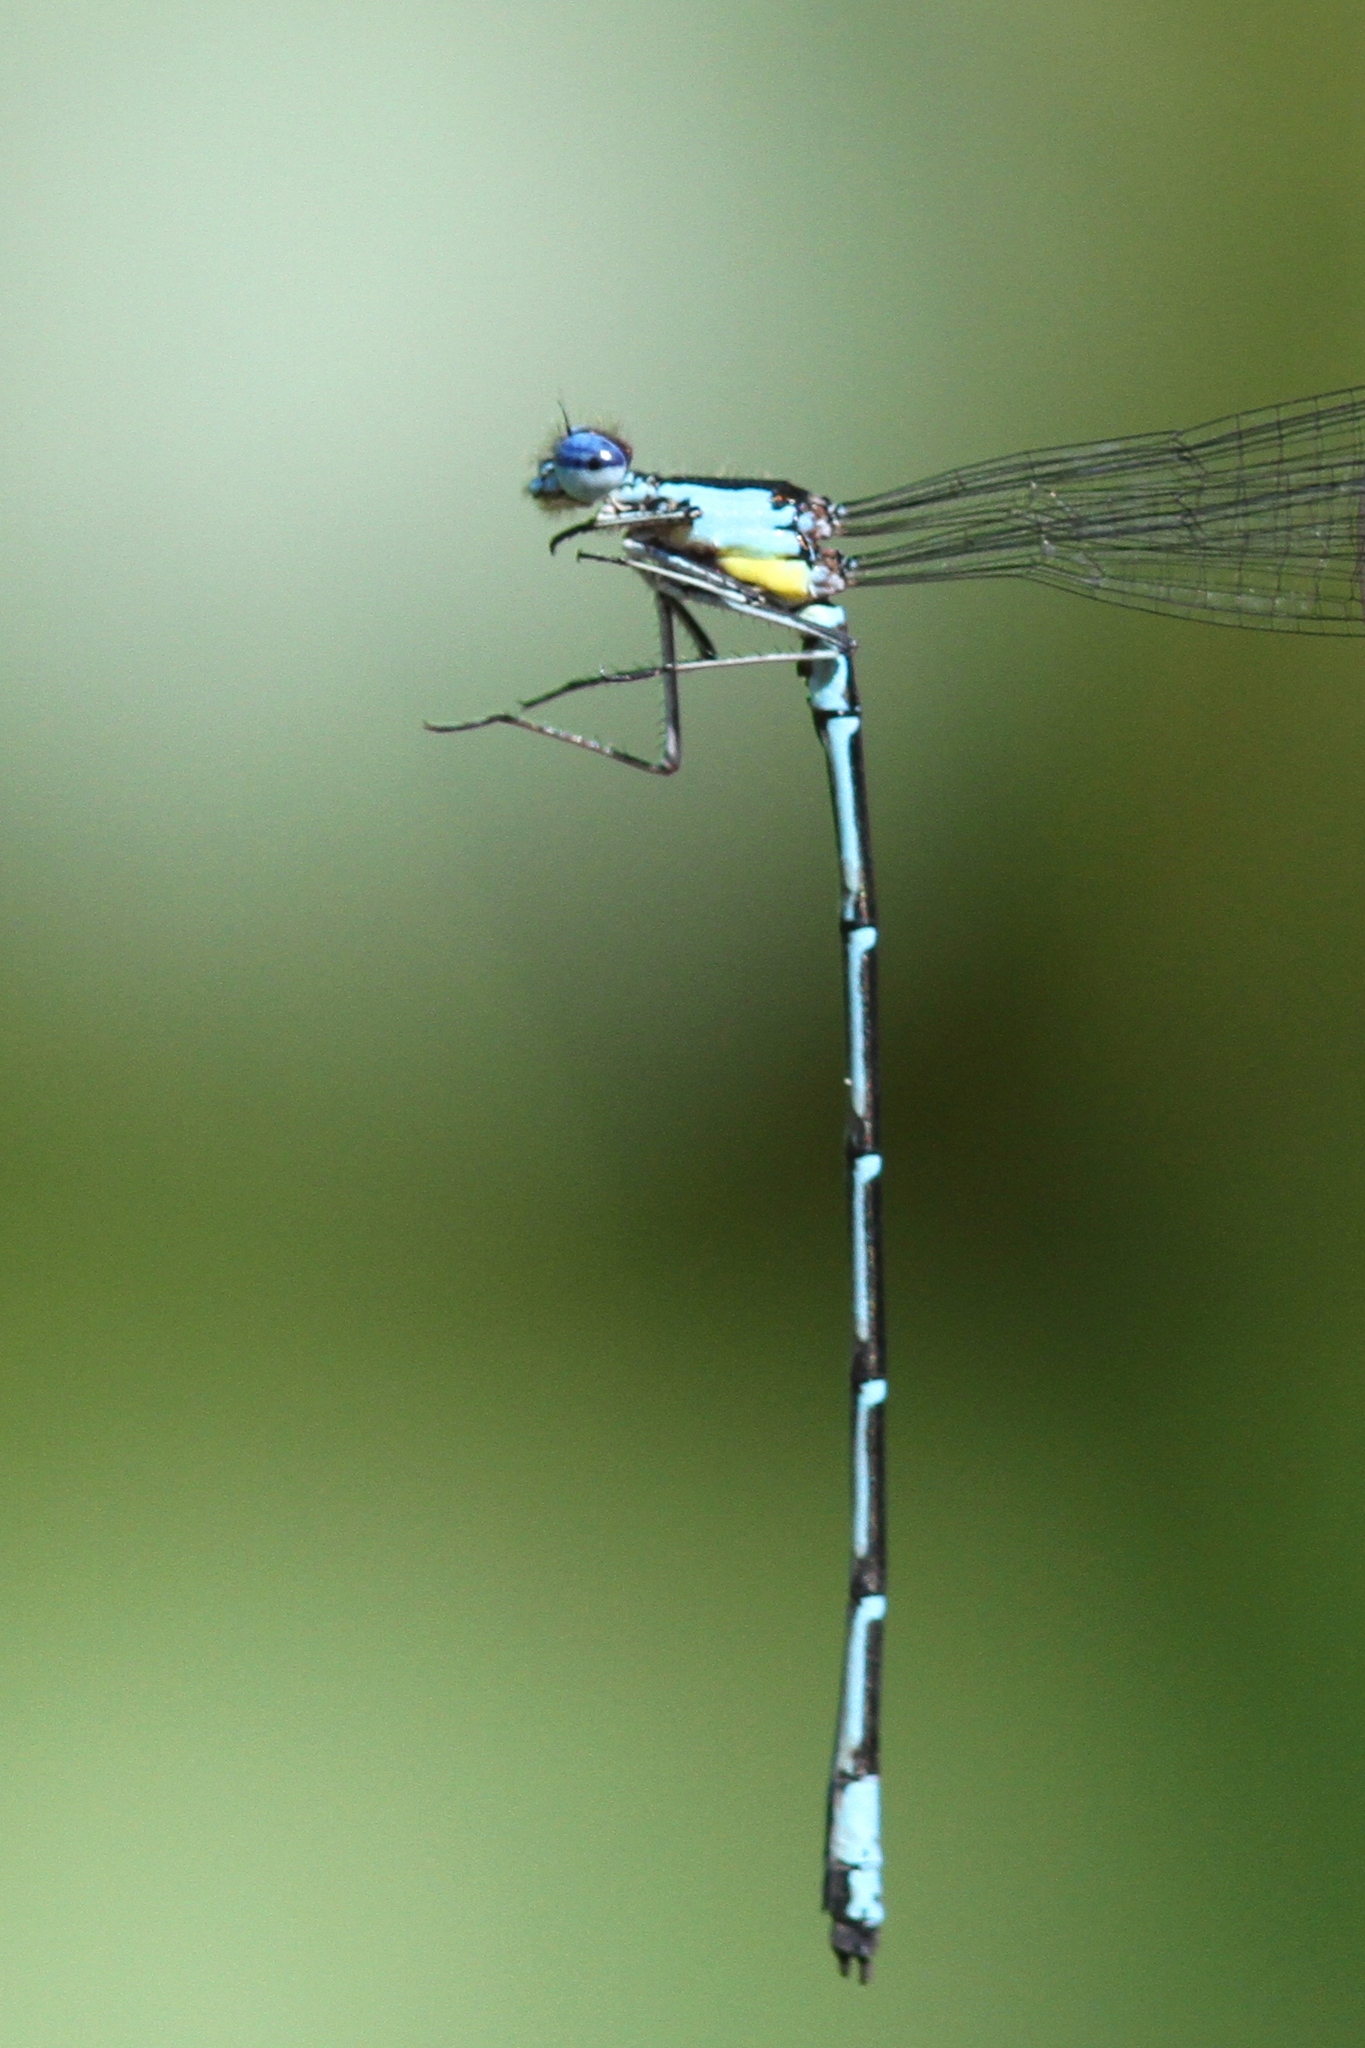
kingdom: Animalia
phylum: Arthropoda
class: Insecta
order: Odonata
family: Coenagrionidae
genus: Chromagrion
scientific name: Chromagrion conditum
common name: Aurora damsel
